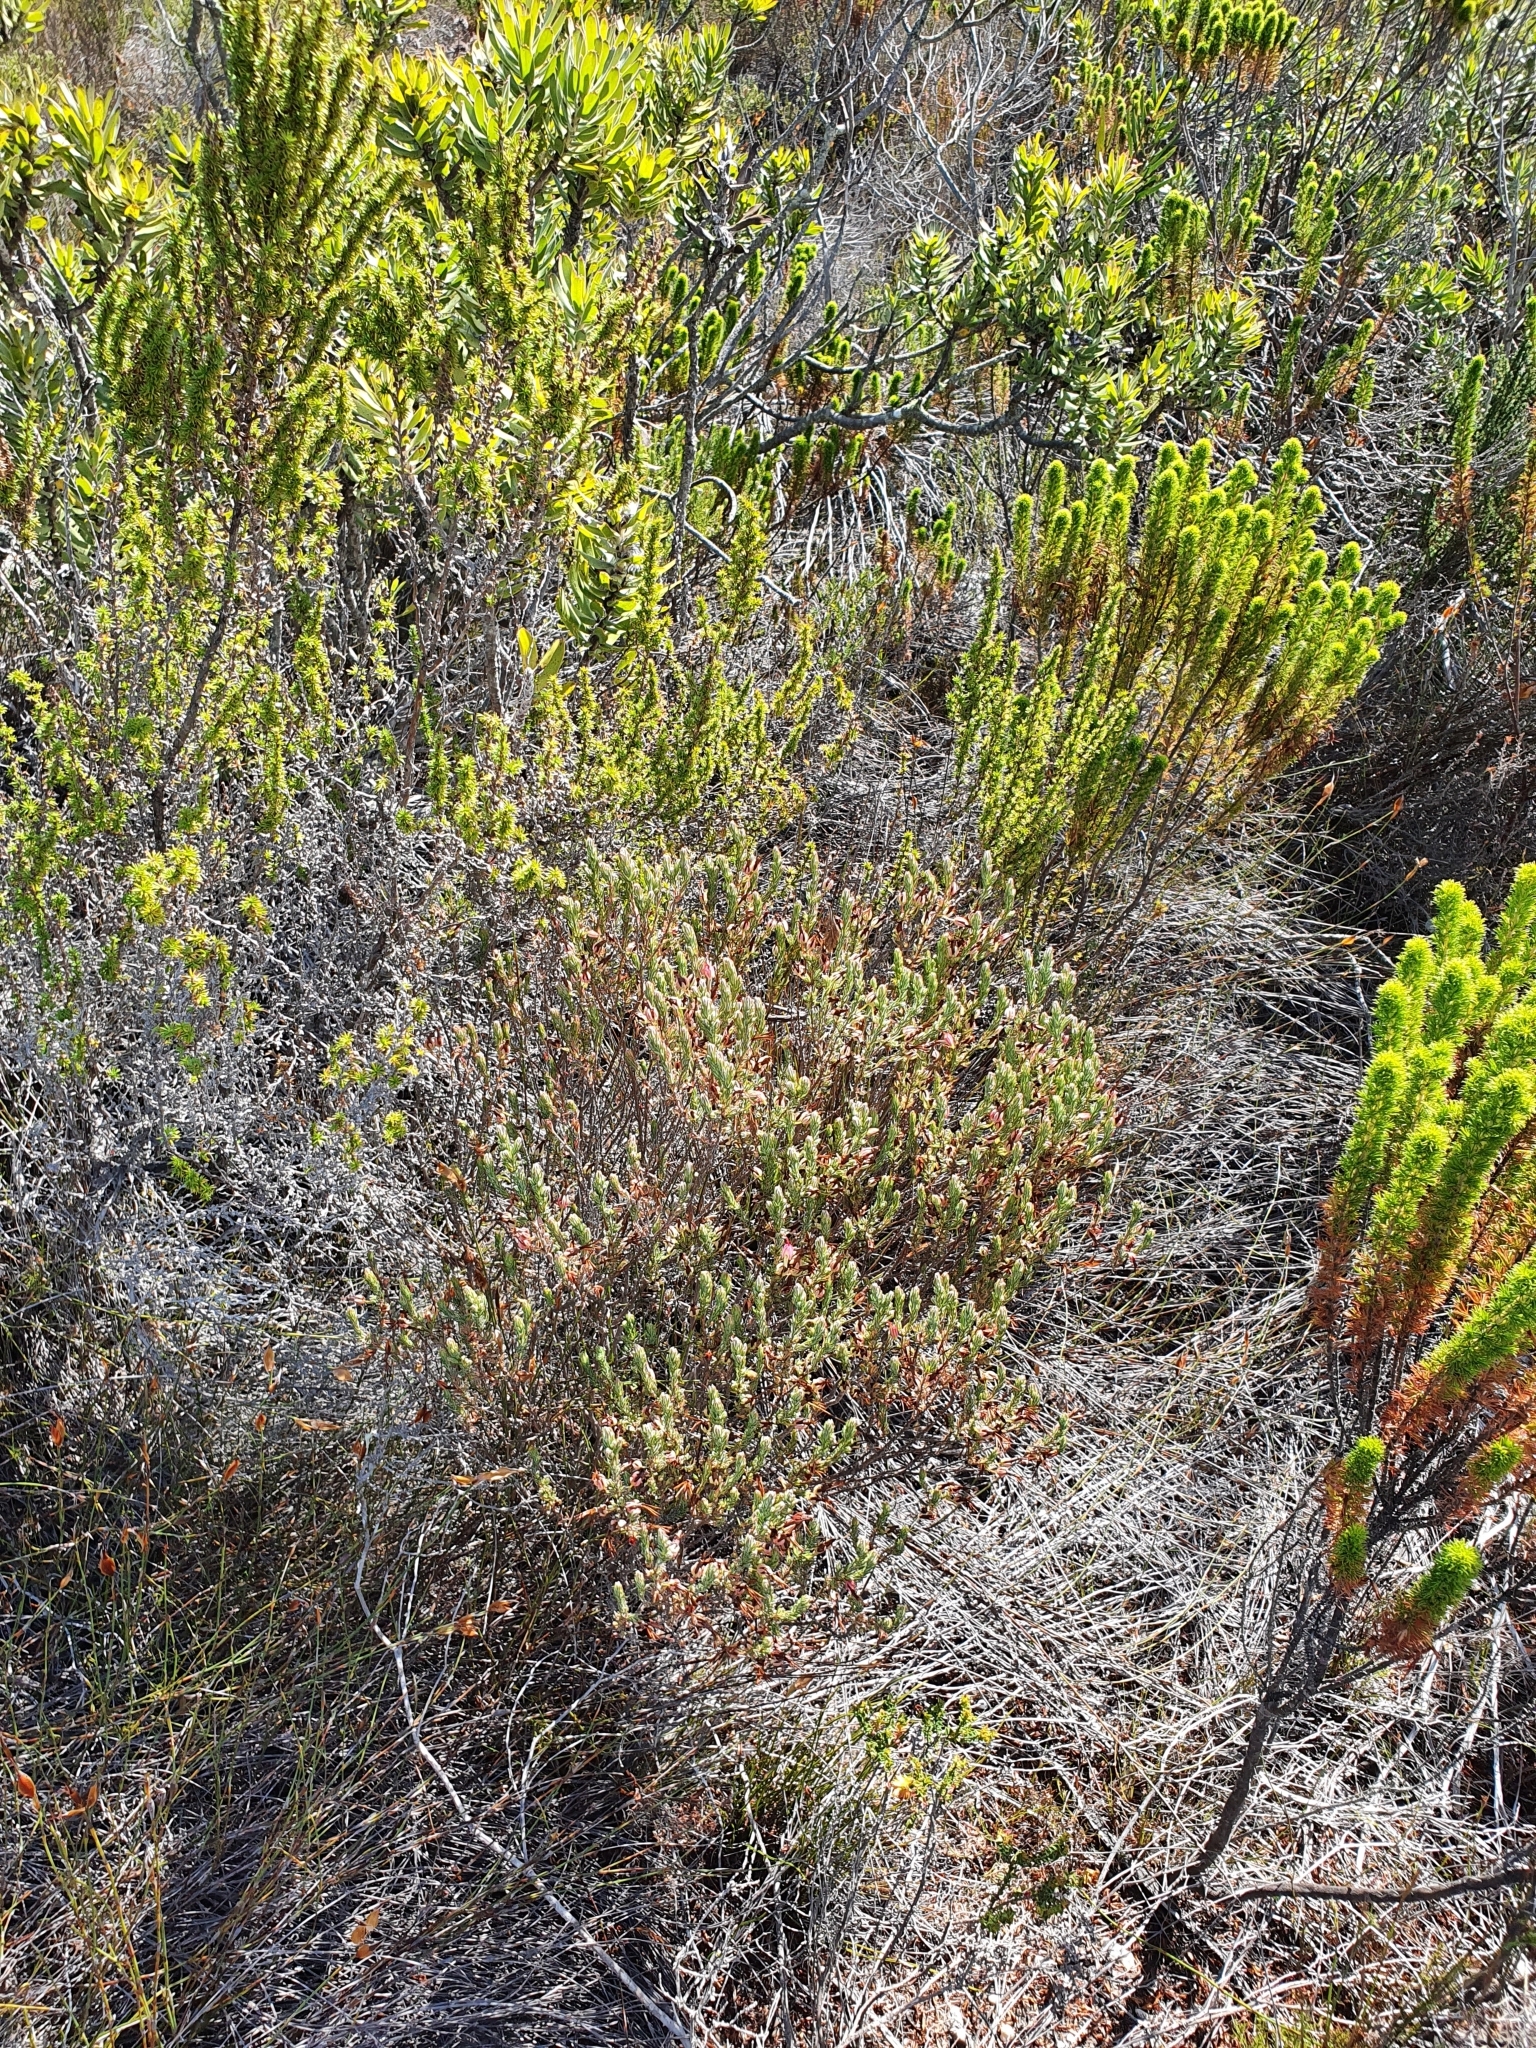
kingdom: Plantae
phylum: Tracheophyta
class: Magnoliopsida
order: Ericales
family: Ericaceae
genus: Erica
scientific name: Erica plukenetii
